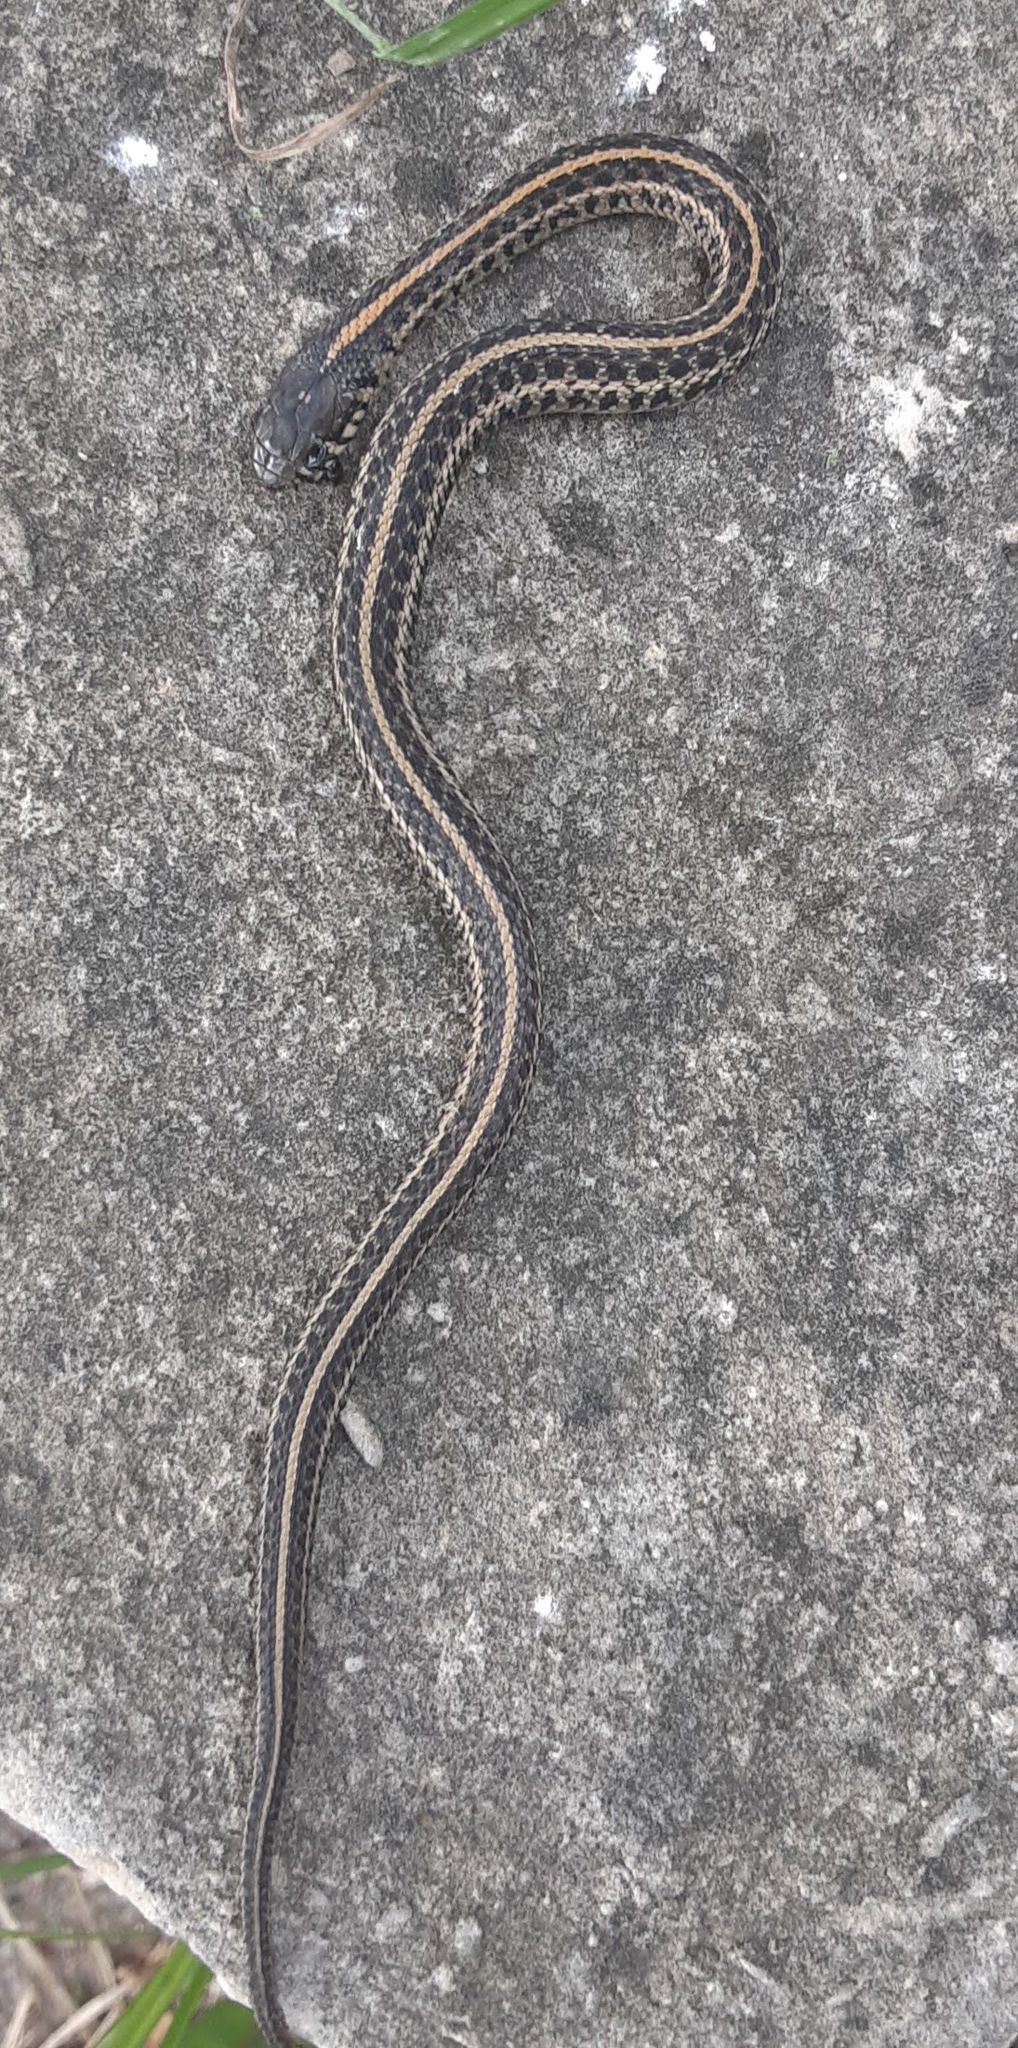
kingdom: Animalia
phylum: Chordata
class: Squamata
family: Colubridae
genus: Thamnophis
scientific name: Thamnophis radix
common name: Plains garter snake
